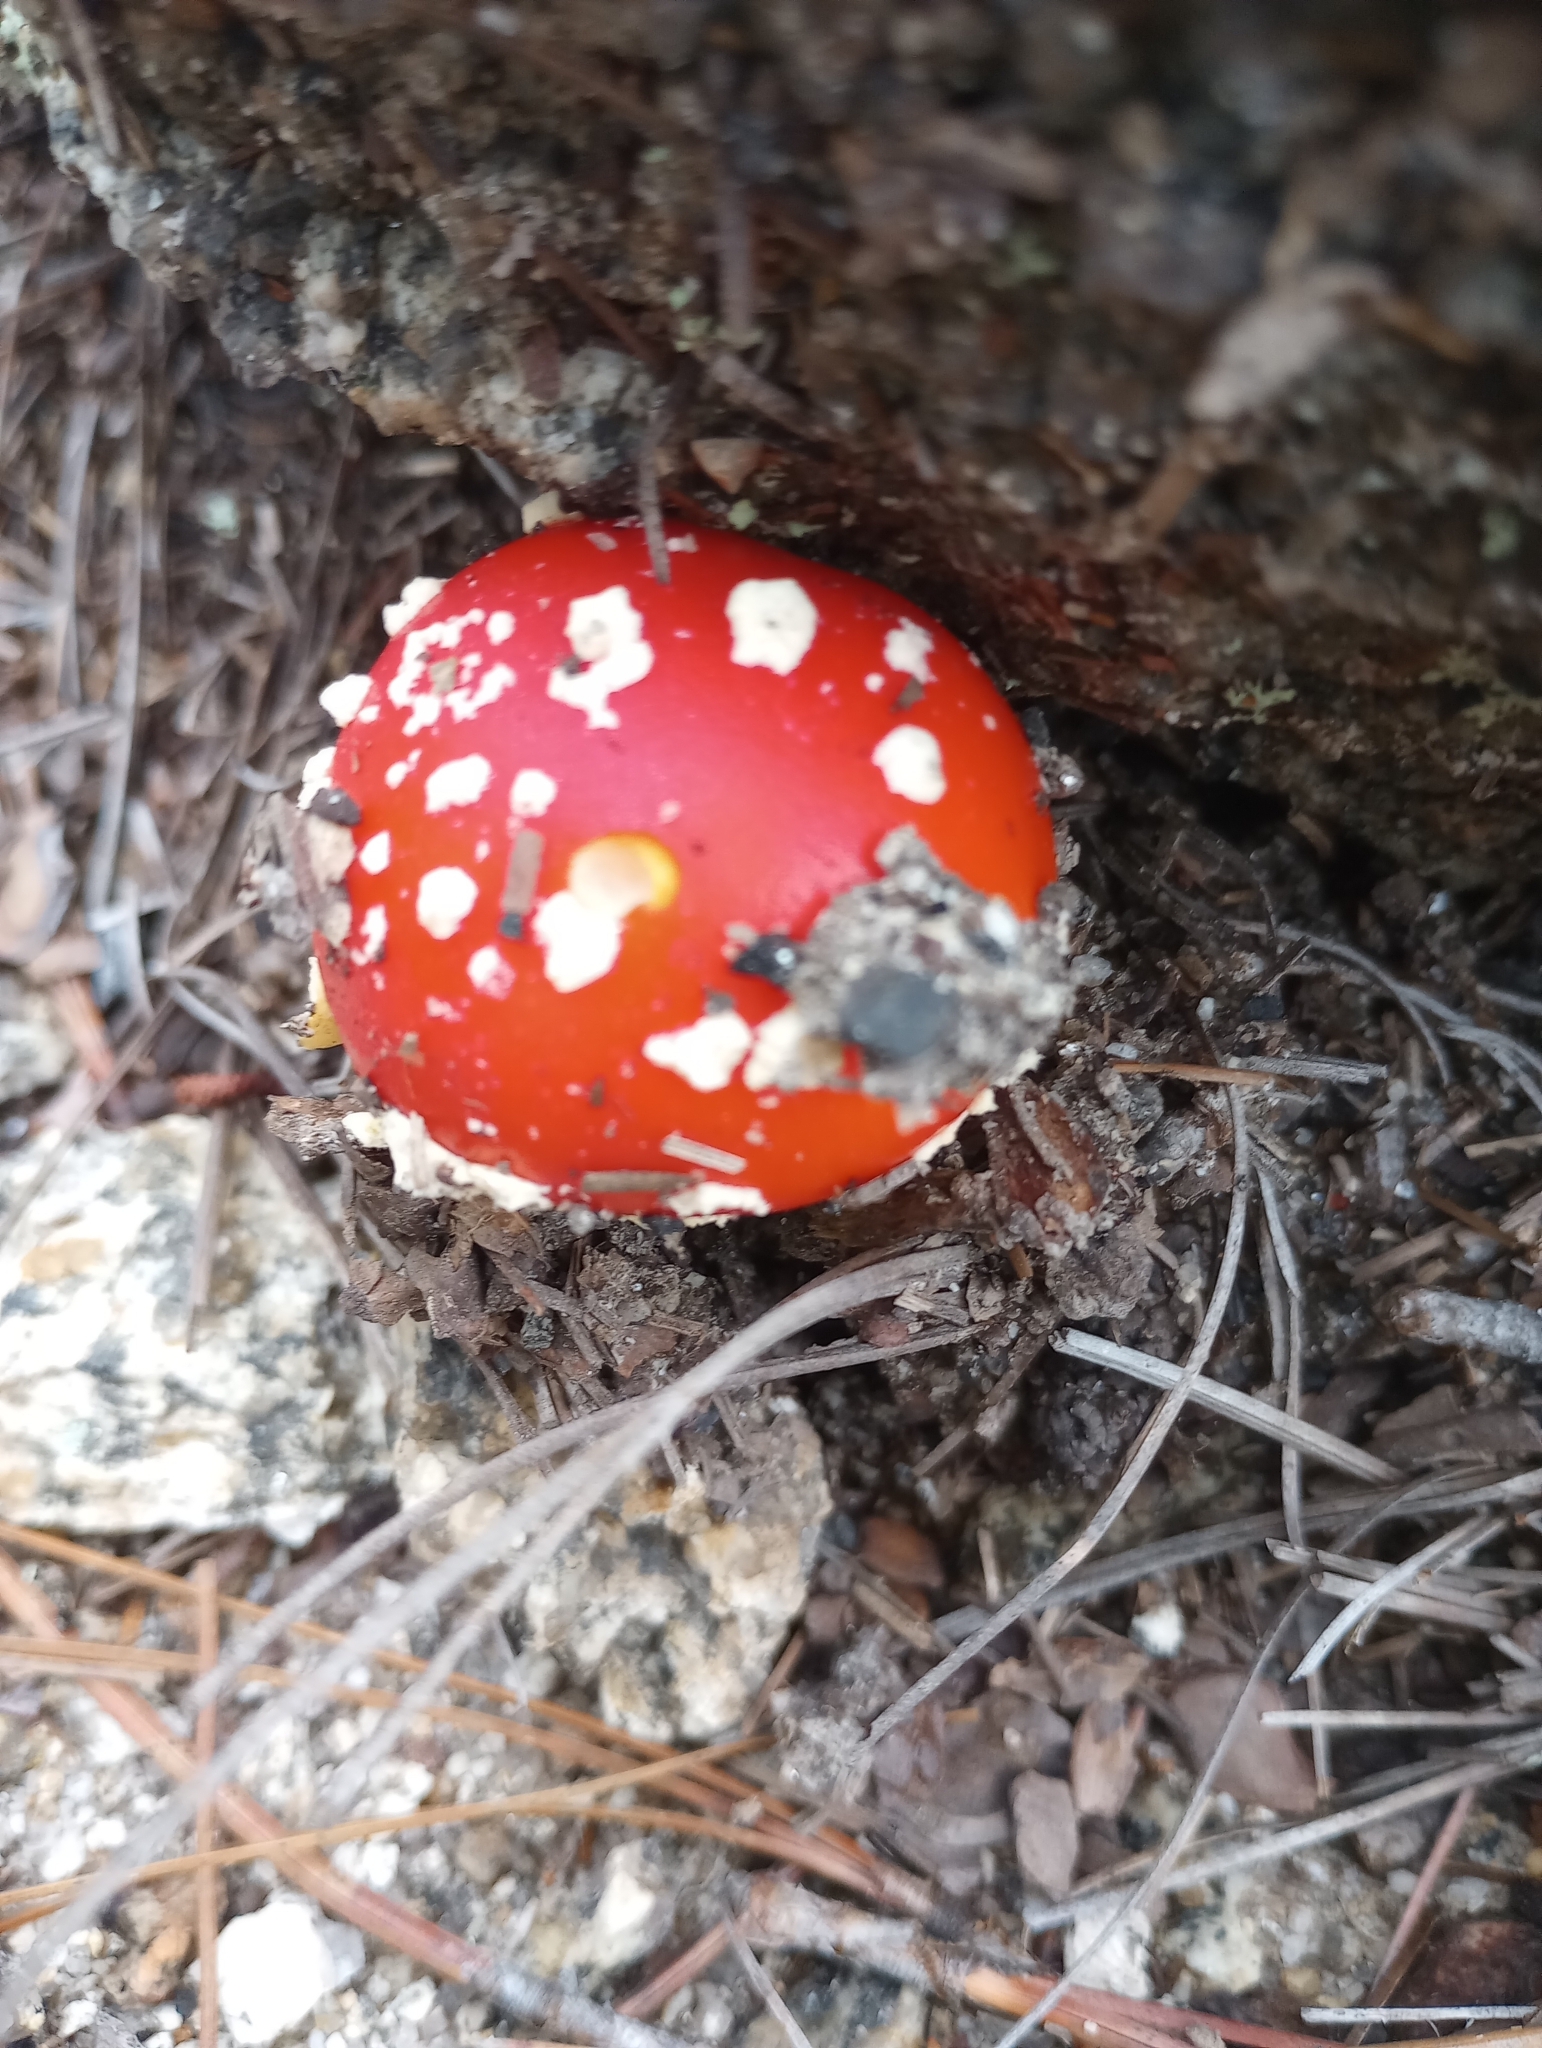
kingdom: Fungi
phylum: Basidiomycota
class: Agaricomycetes
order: Agaricales
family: Amanitaceae
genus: Amanita
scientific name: Amanita muscaria
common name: Fly agaric
